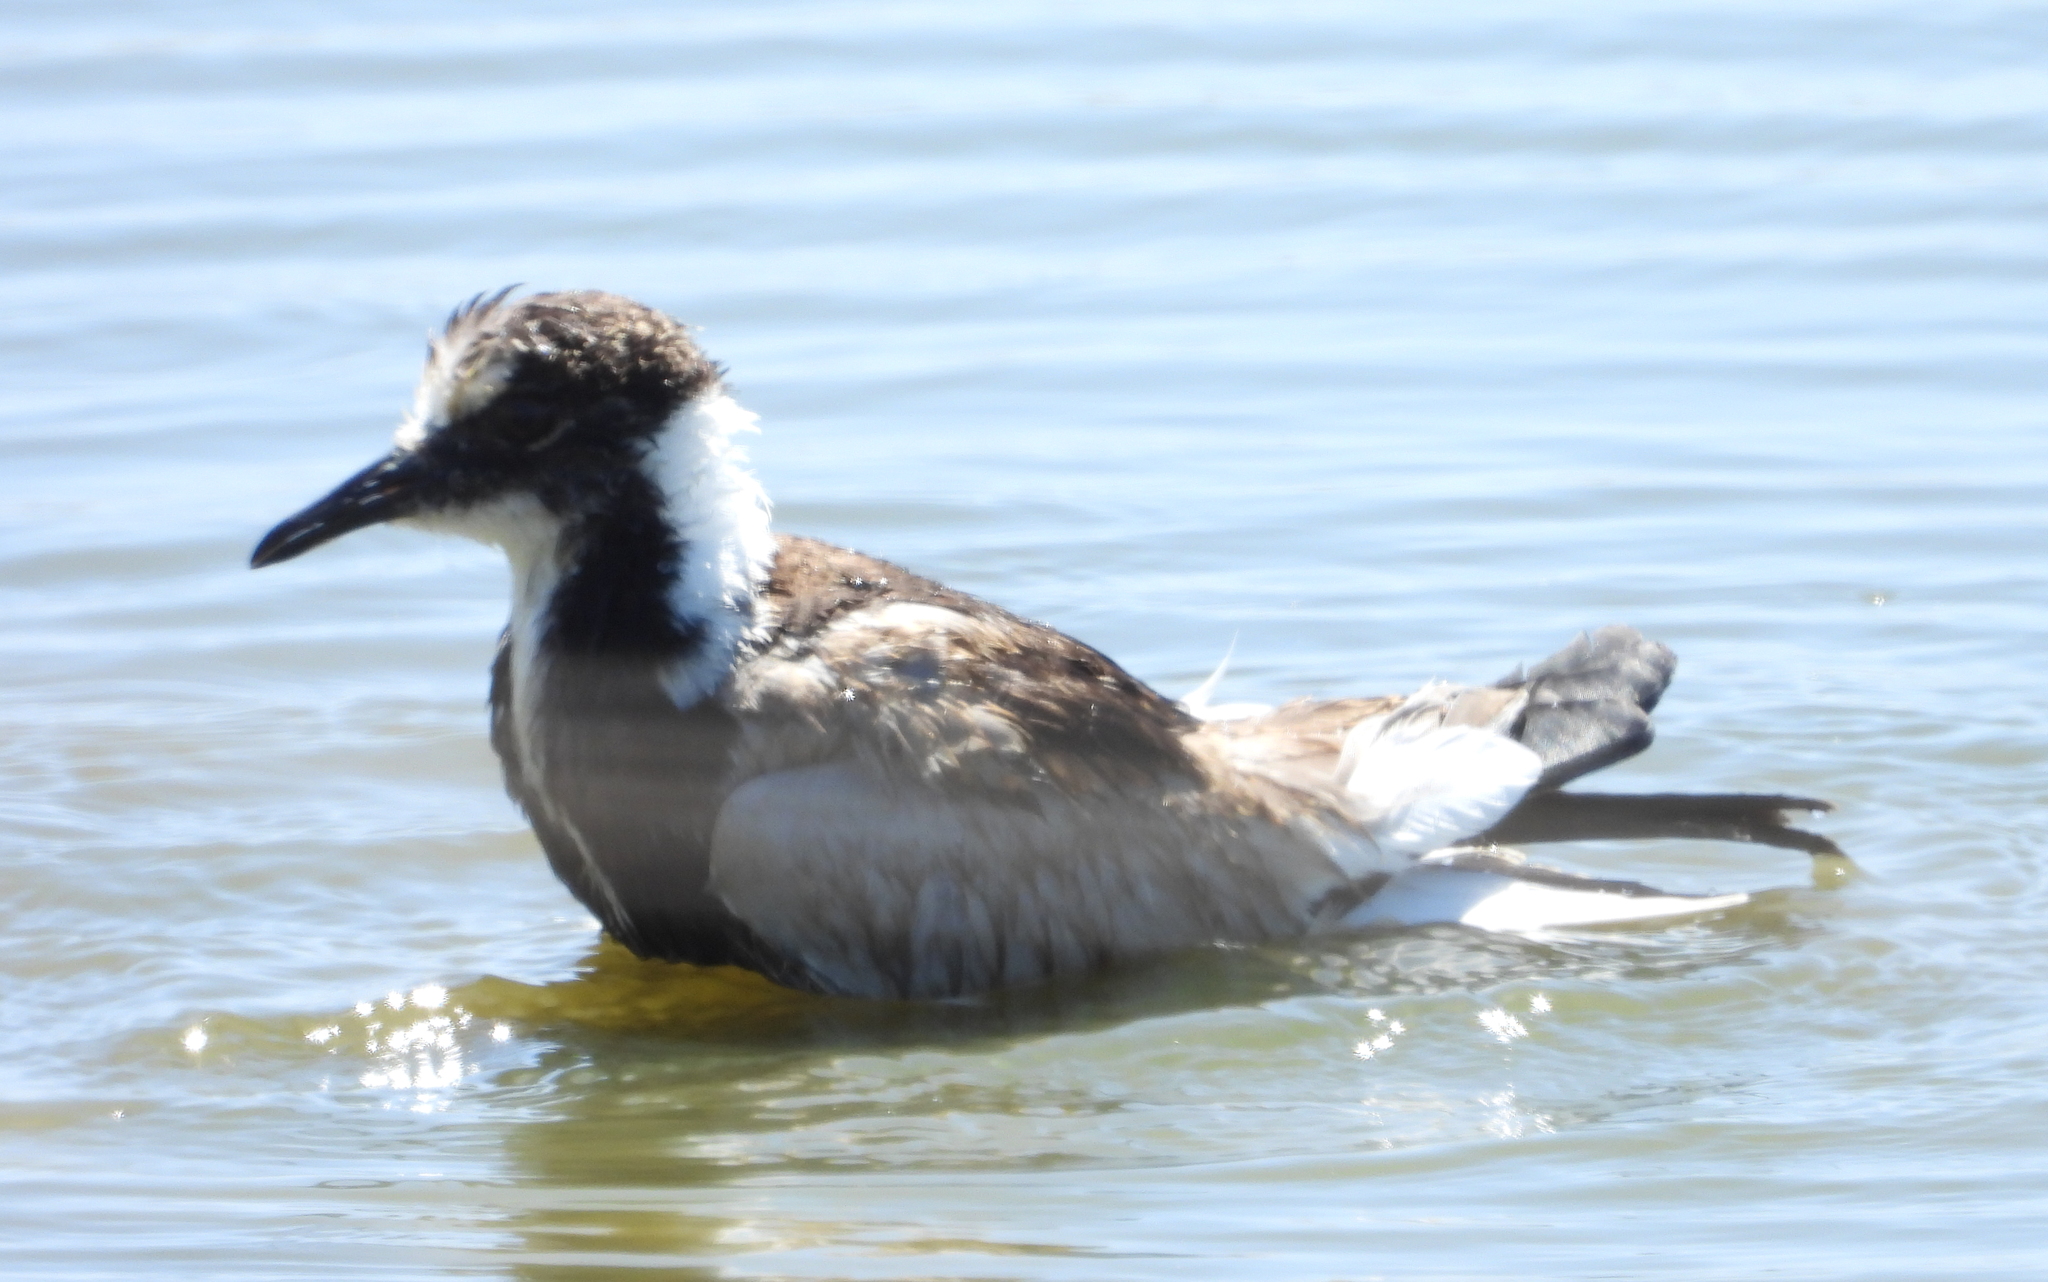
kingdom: Animalia
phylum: Chordata
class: Aves
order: Charadriiformes
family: Charadriidae
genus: Vanellus
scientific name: Vanellus armatus
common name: Blacksmith lapwing
